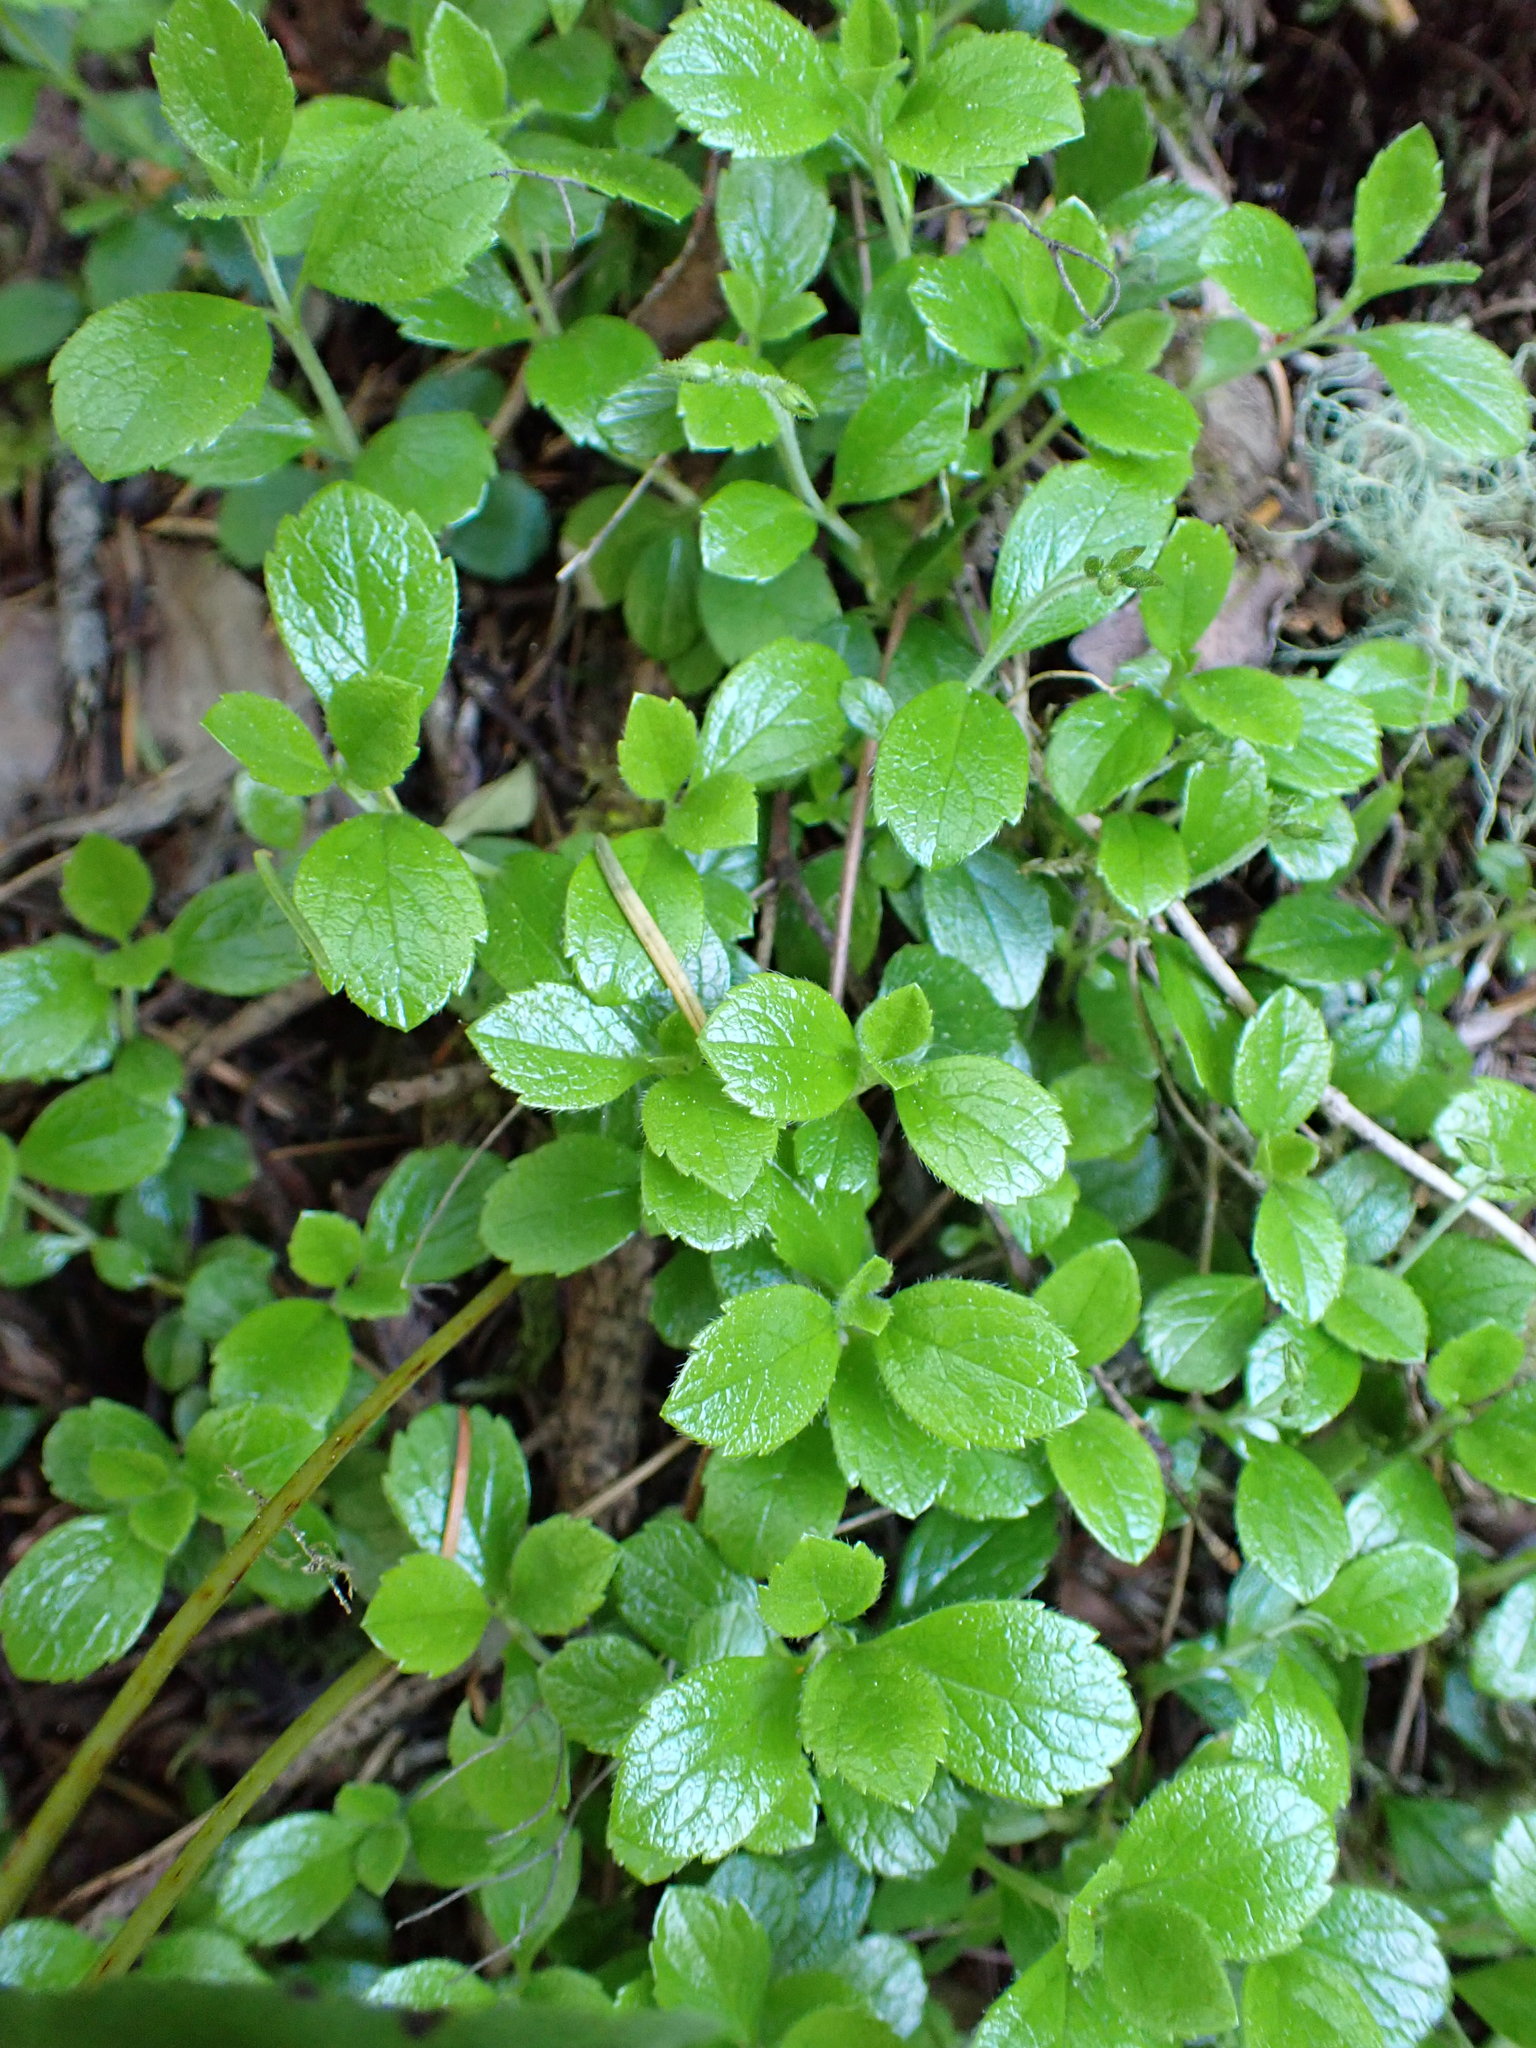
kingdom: Plantae
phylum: Tracheophyta
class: Magnoliopsida
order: Dipsacales
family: Caprifoliaceae
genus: Linnaea
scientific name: Linnaea borealis
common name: Twinflower
